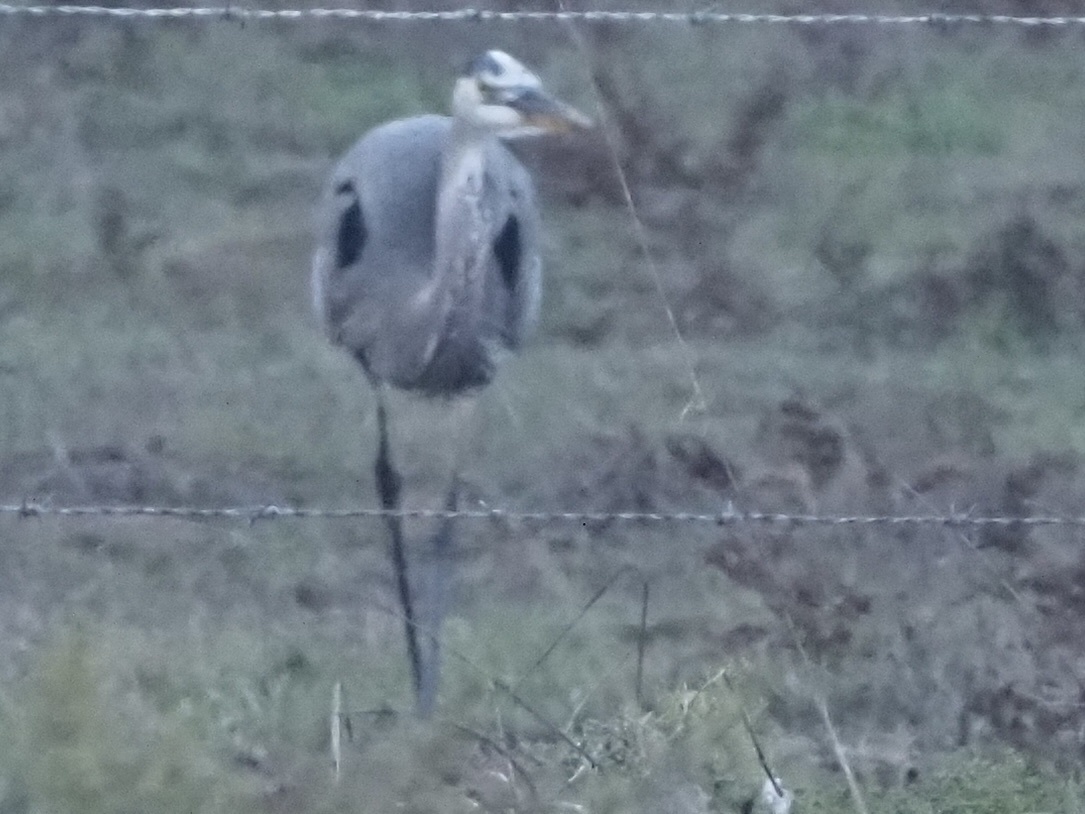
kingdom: Animalia
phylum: Chordata
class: Aves
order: Pelecaniformes
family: Ardeidae
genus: Ardea
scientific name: Ardea herodias
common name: Great blue heron
